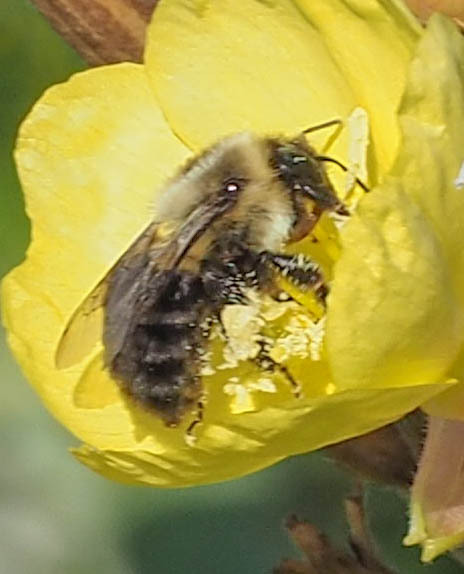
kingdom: Animalia
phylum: Arthropoda
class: Insecta
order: Hymenoptera
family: Apidae
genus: Bombus
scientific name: Bombus impatiens
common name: Common eastern bumble bee
